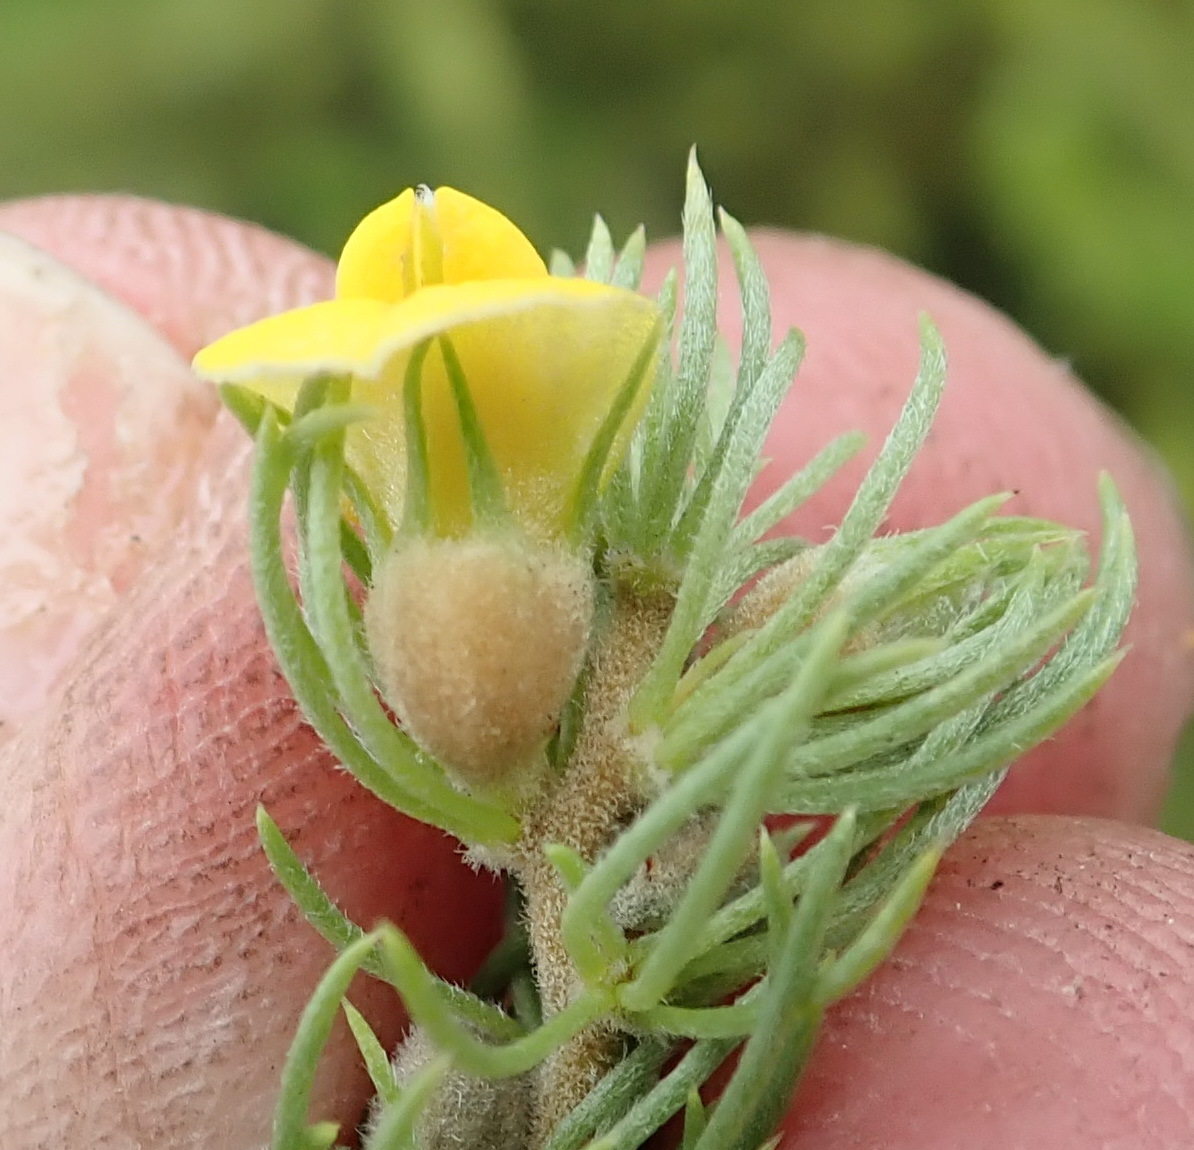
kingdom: Plantae
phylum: Tracheophyta
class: Magnoliopsida
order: Fabales
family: Fabaceae
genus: Aspalathus
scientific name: Aspalathus setacea
